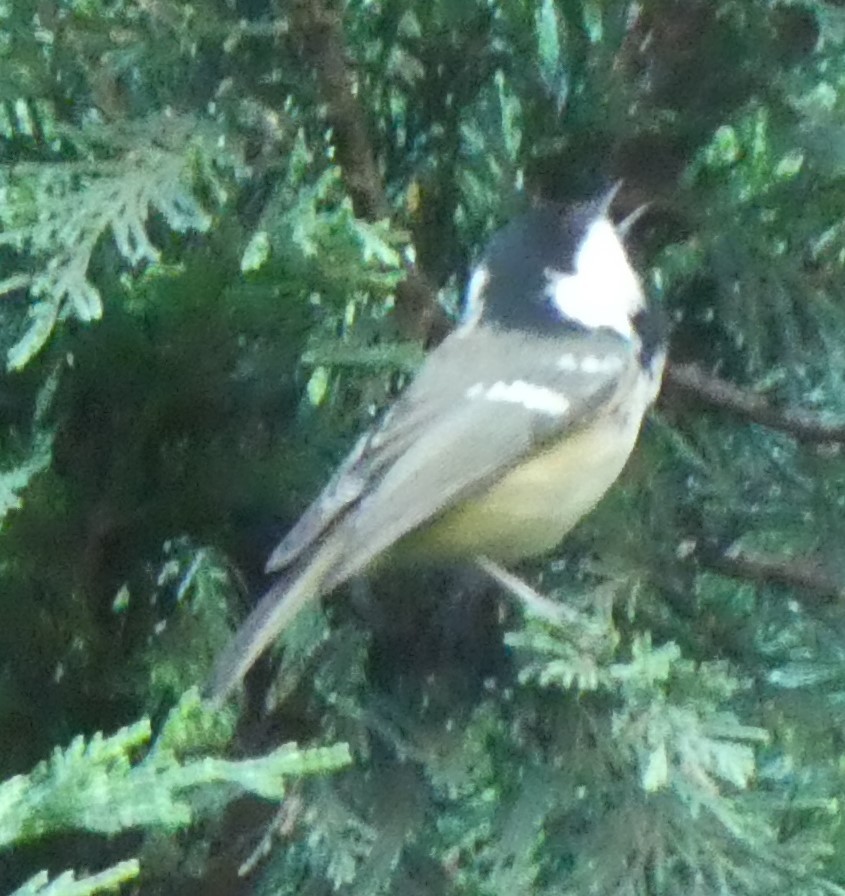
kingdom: Animalia
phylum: Chordata
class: Aves
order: Passeriformes
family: Paridae
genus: Periparus
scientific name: Periparus ater
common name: Coal tit
